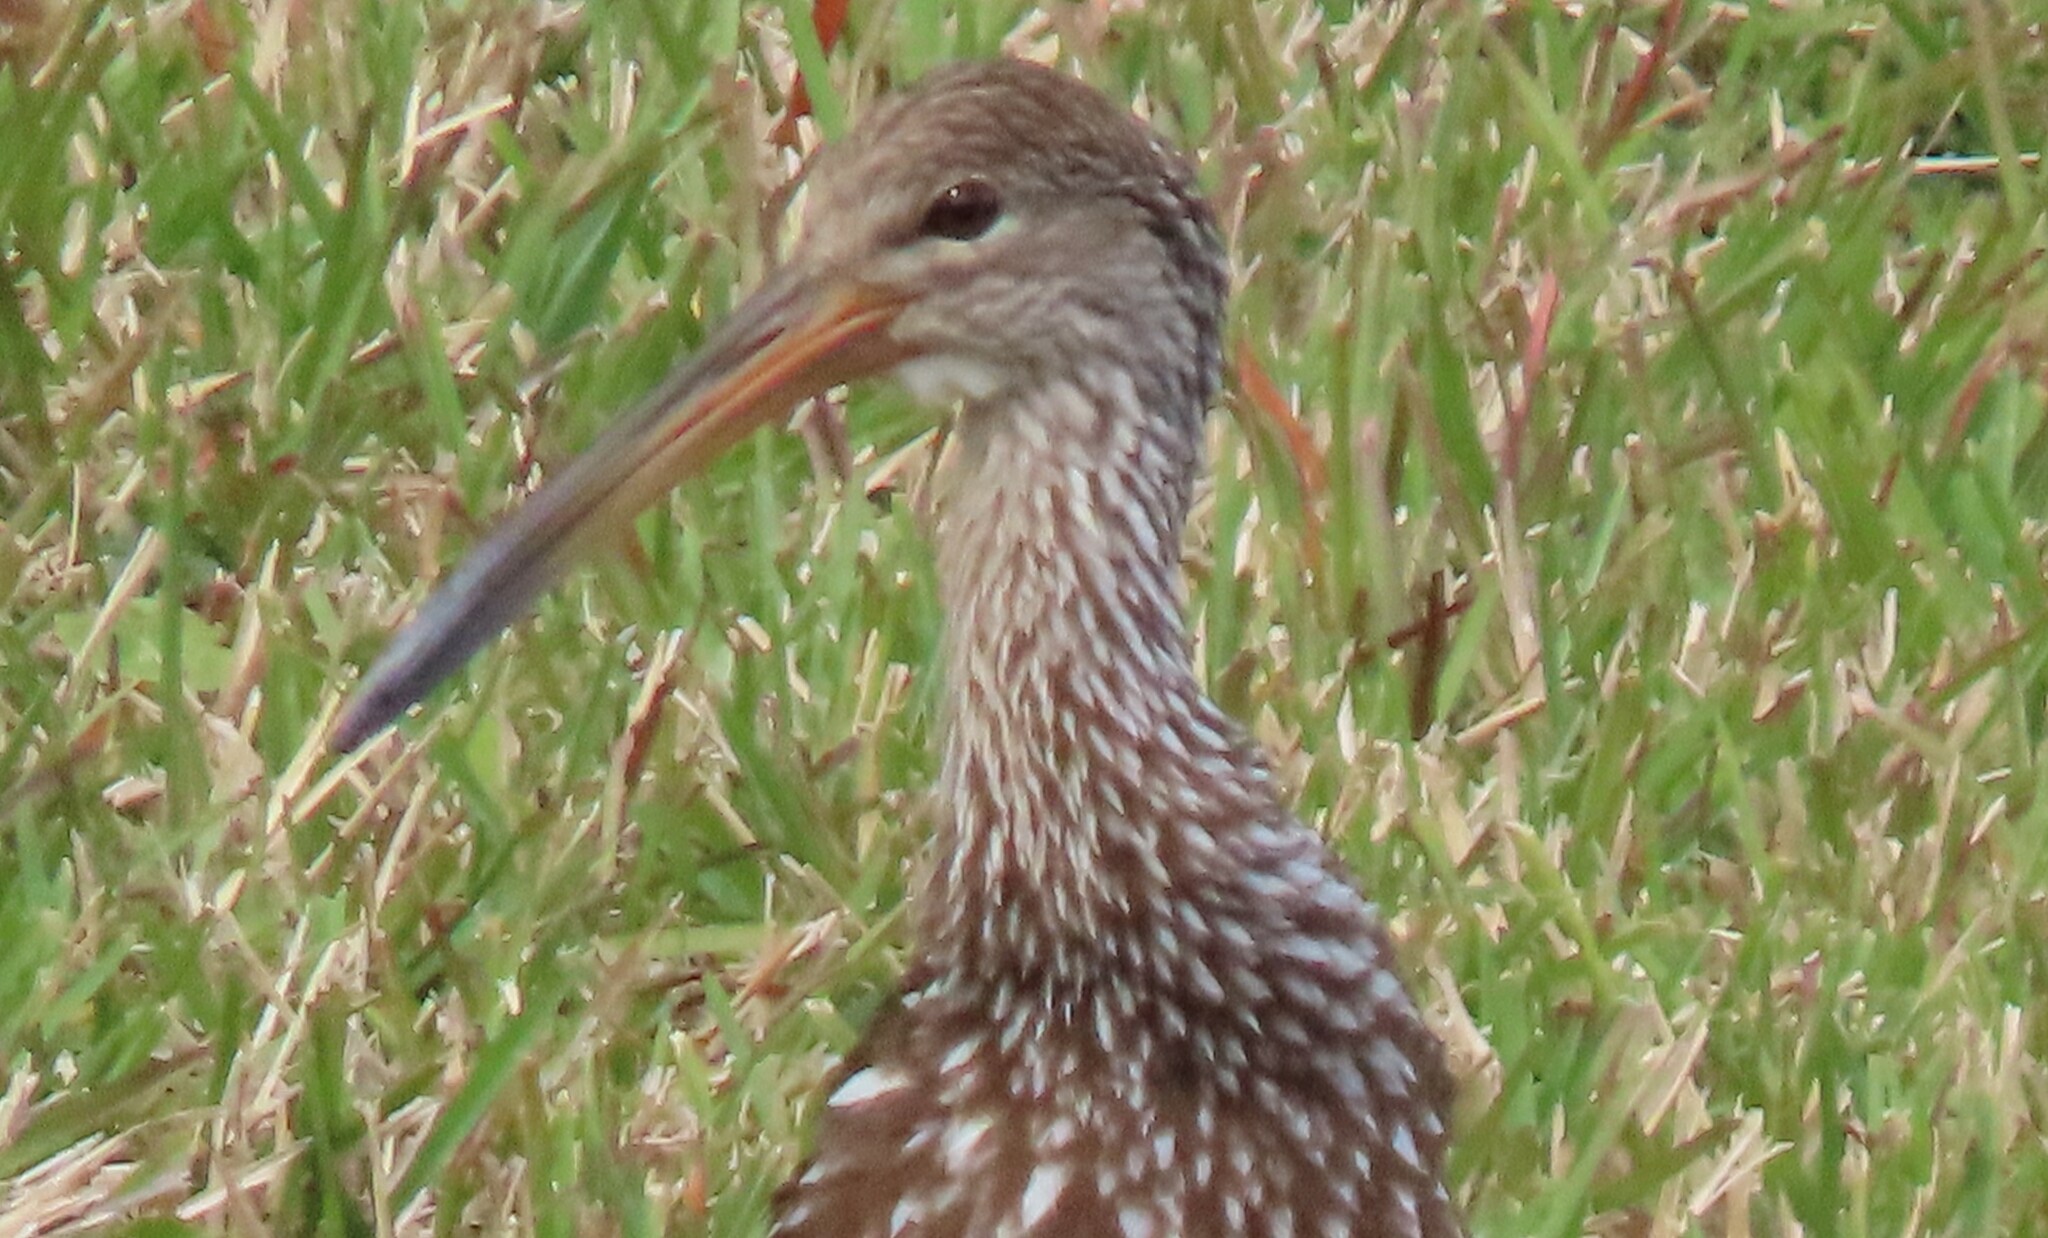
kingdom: Animalia
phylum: Chordata
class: Aves
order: Gruiformes
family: Aramidae
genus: Aramus
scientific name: Aramus guarauna
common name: Limpkin
